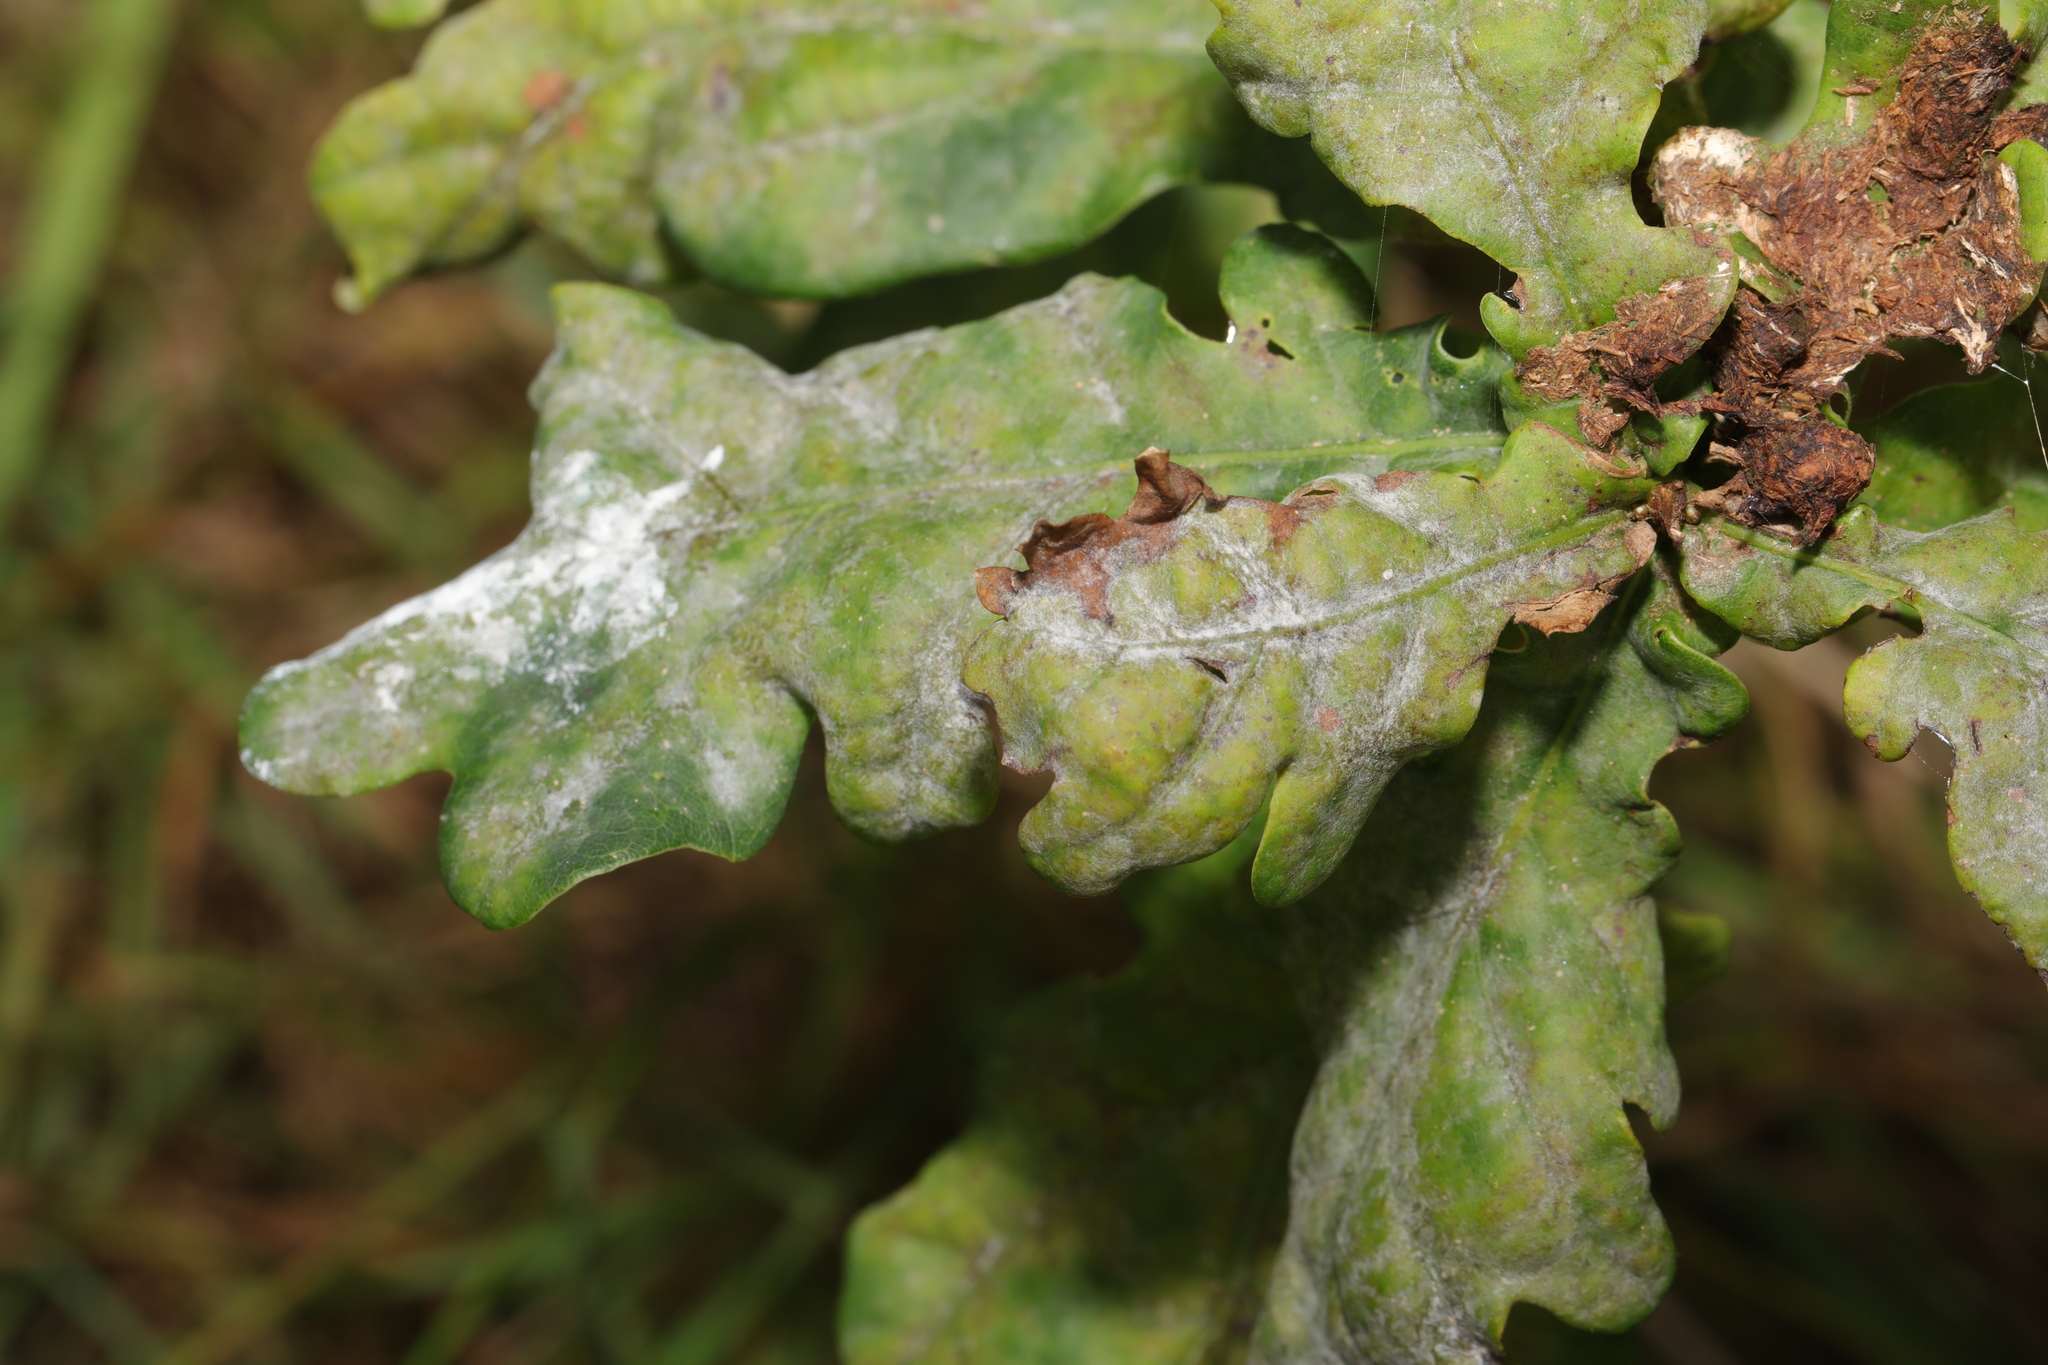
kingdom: Fungi
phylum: Ascomycota
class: Leotiomycetes
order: Helotiales
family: Erysiphaceae
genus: Erysiphe
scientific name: Erysiphe alphitoides
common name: Oak mildew
